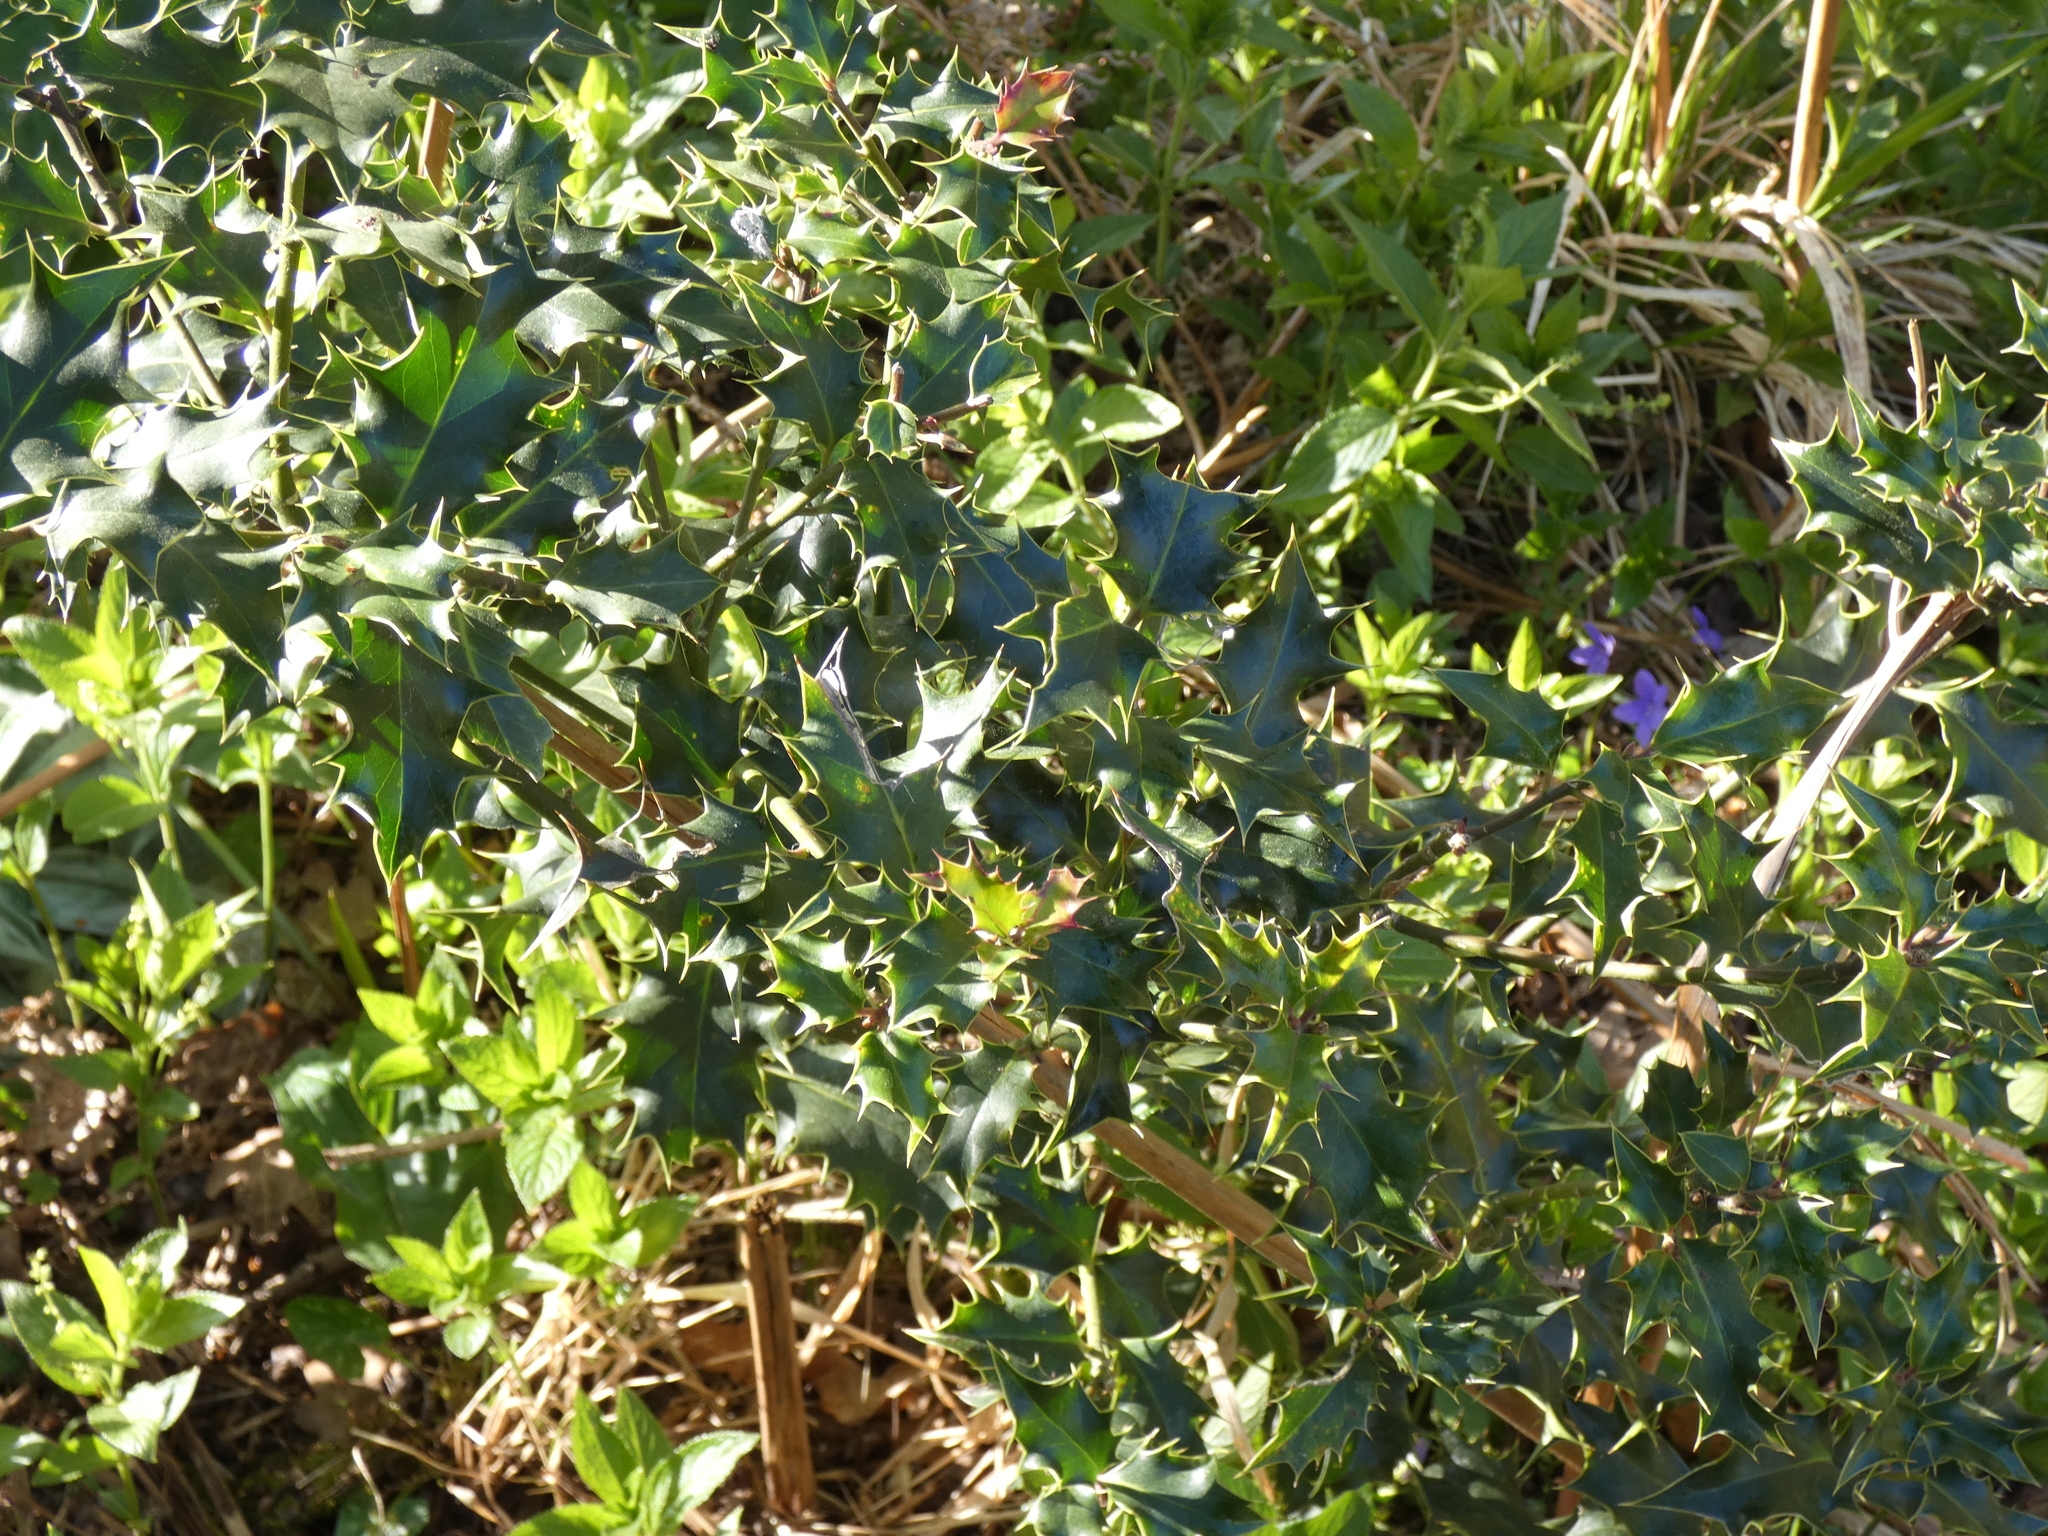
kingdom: Plantae
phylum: Tracheophyta
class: Magnoliopsida
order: Aquifoliales
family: Aquifoliaceae
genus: Ilex
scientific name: Ilex aquifolium
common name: English holly
